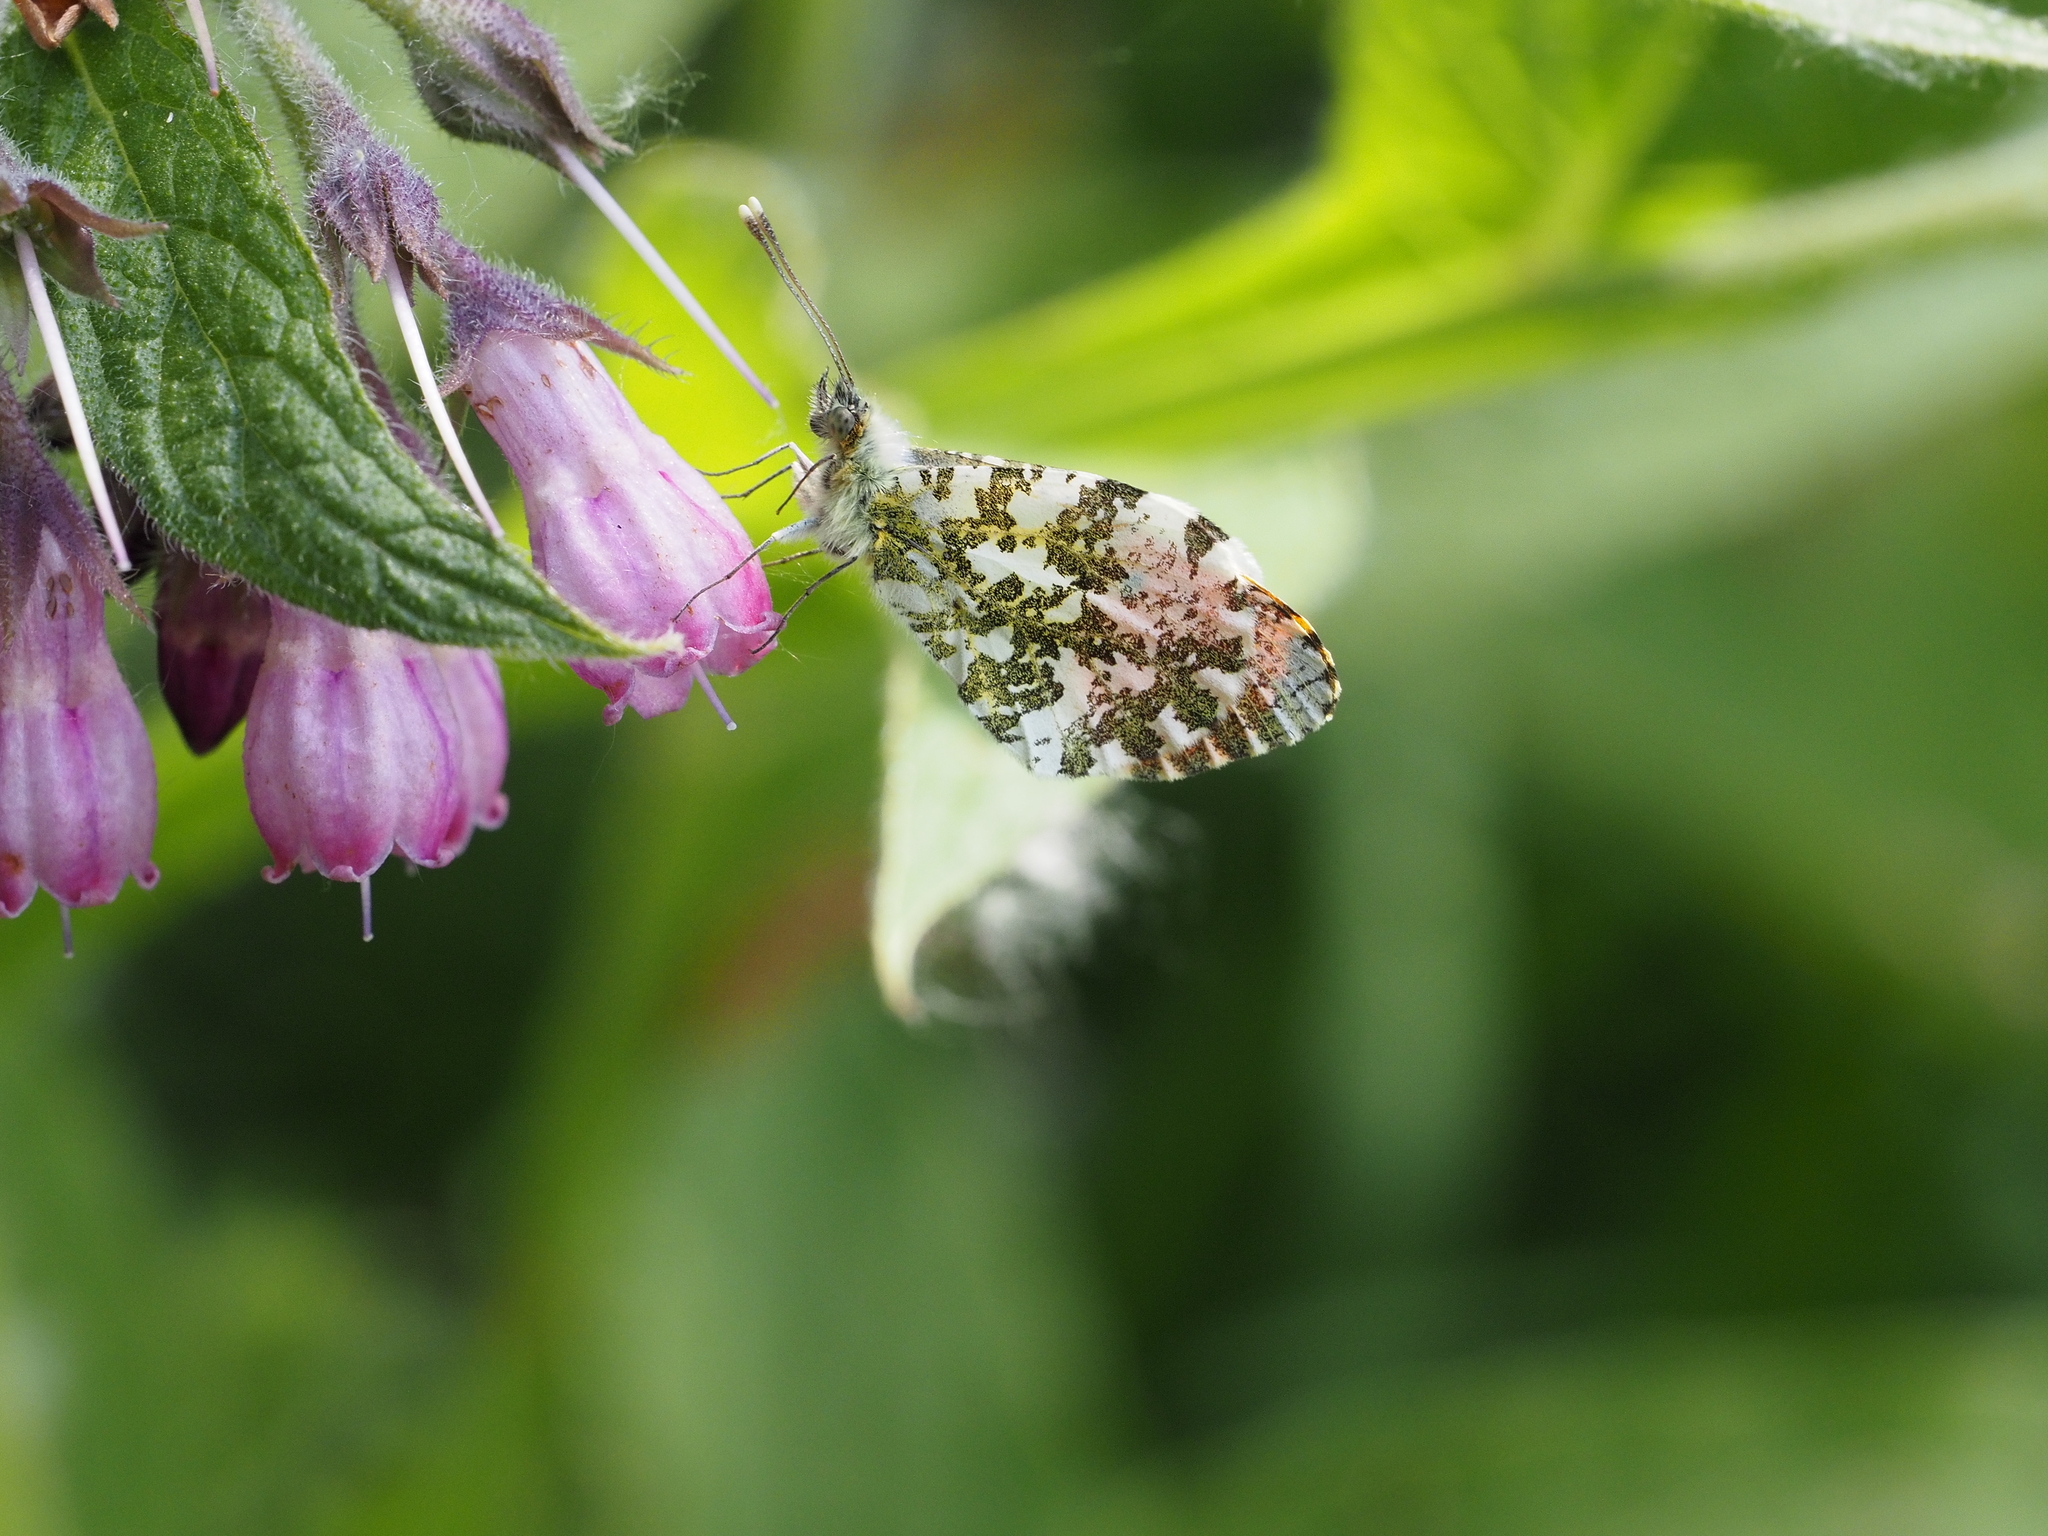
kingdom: Animalia
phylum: Arthropoda
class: Insecta
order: Lepidoptera
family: Pieridae
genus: Anthocharis
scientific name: Anthocharis cardamines
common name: Orange-tip
